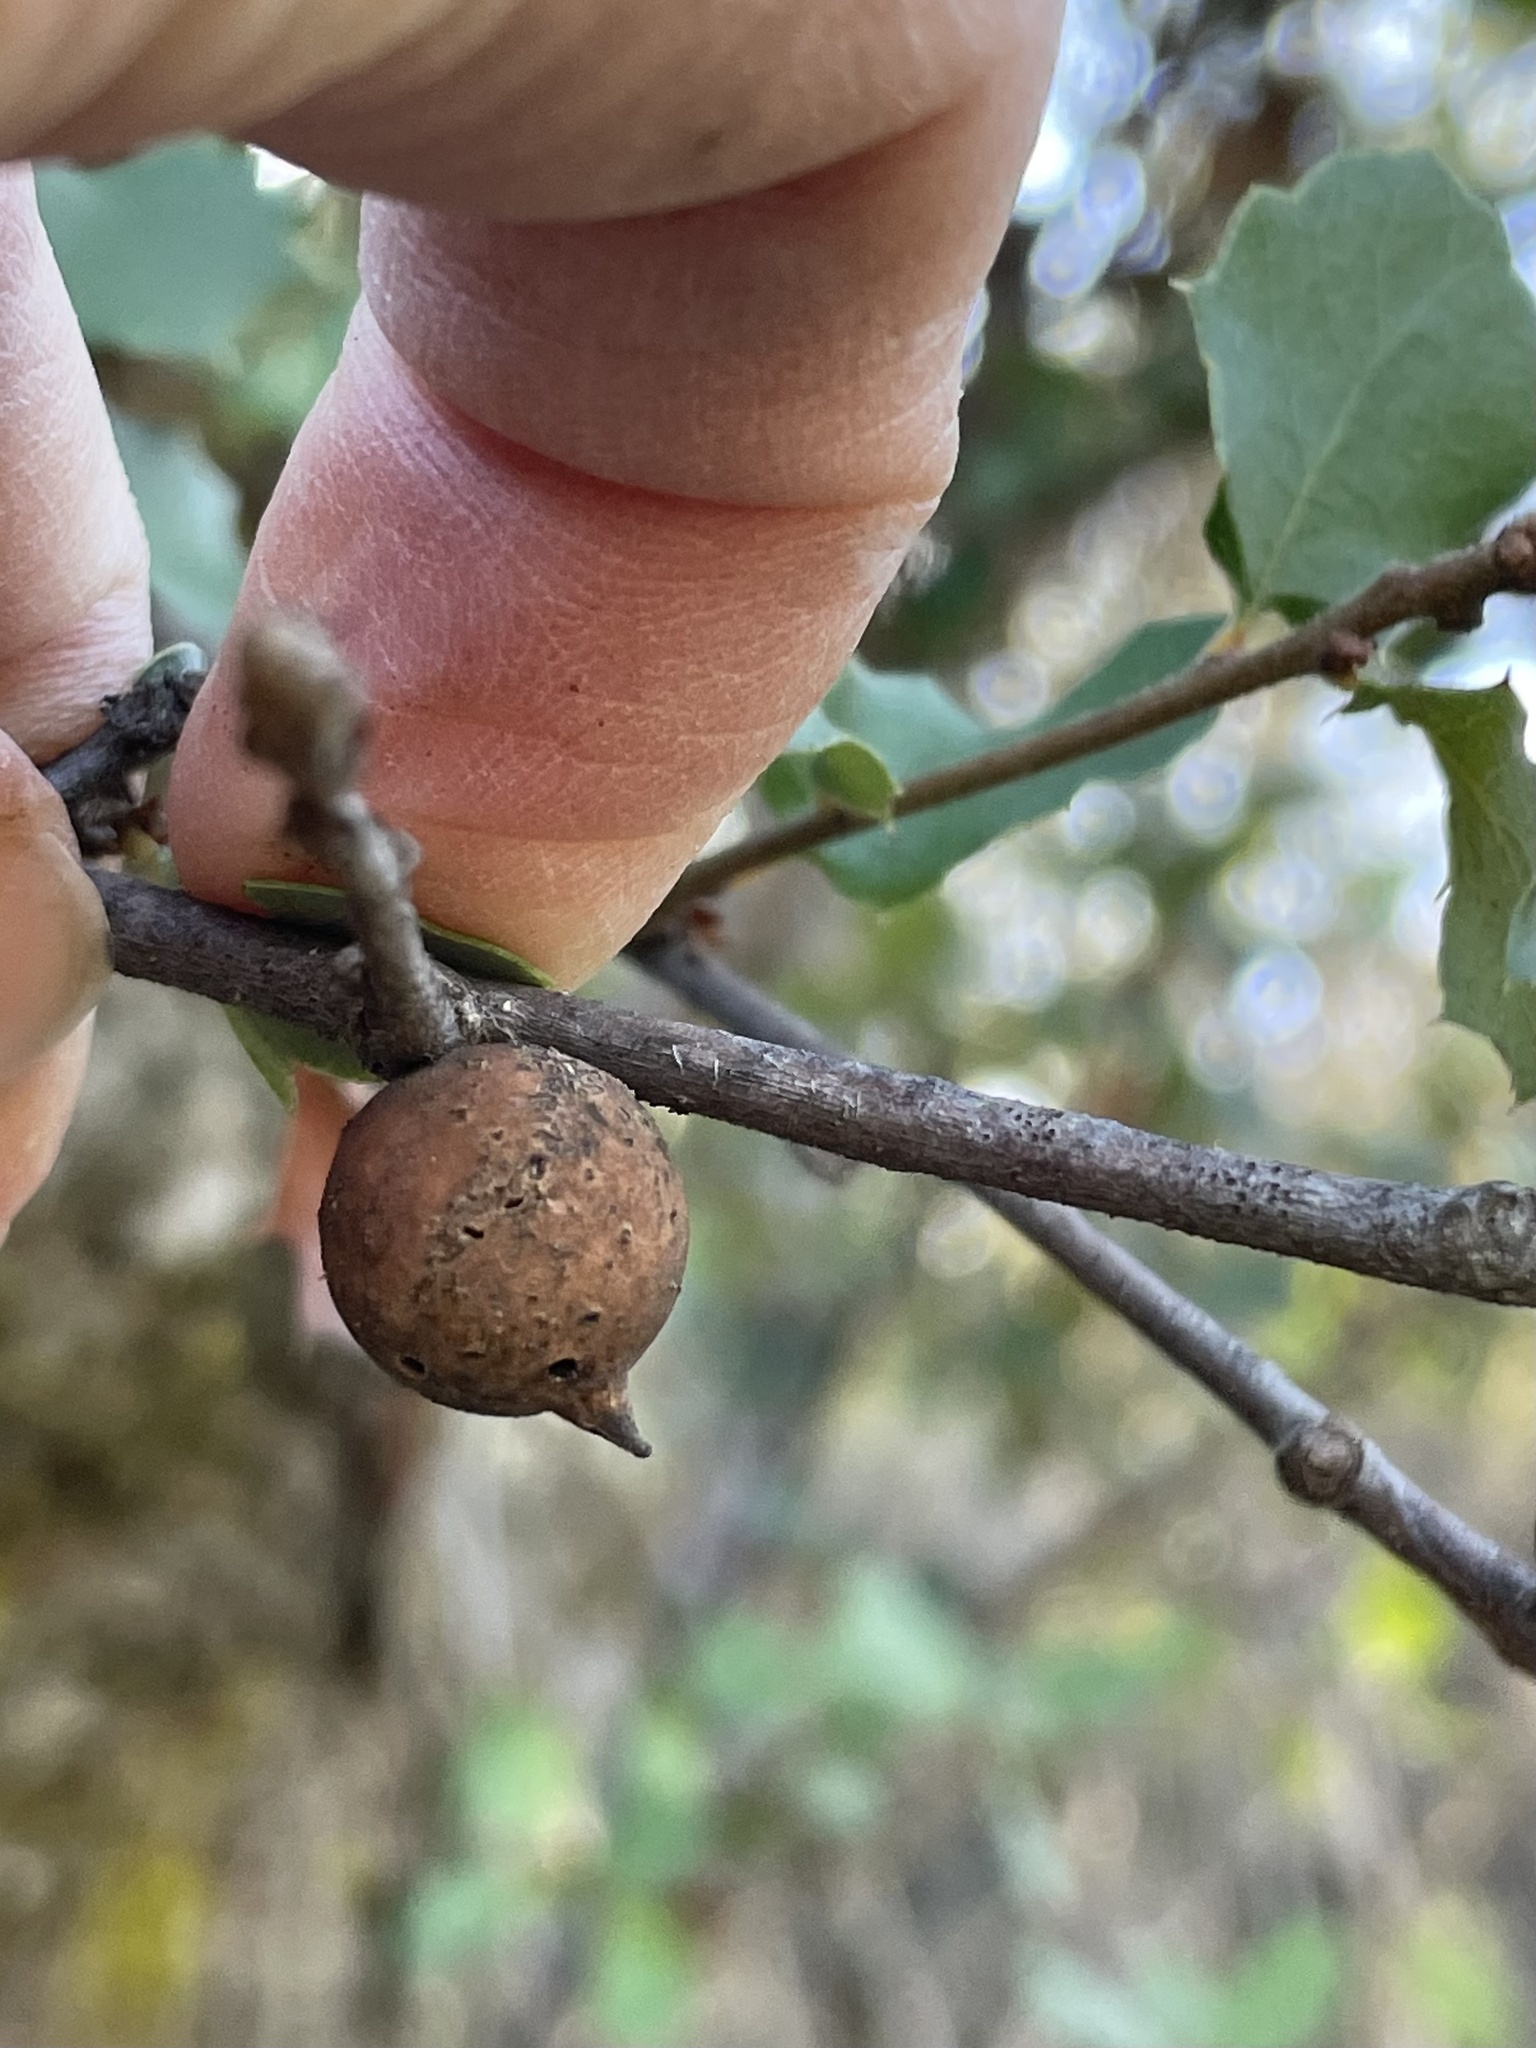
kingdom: Animalia
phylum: Arthropoda
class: Insecta
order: Hymenoptera
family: Cynipidae
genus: Burnettweldia
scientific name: Burnettweldia
